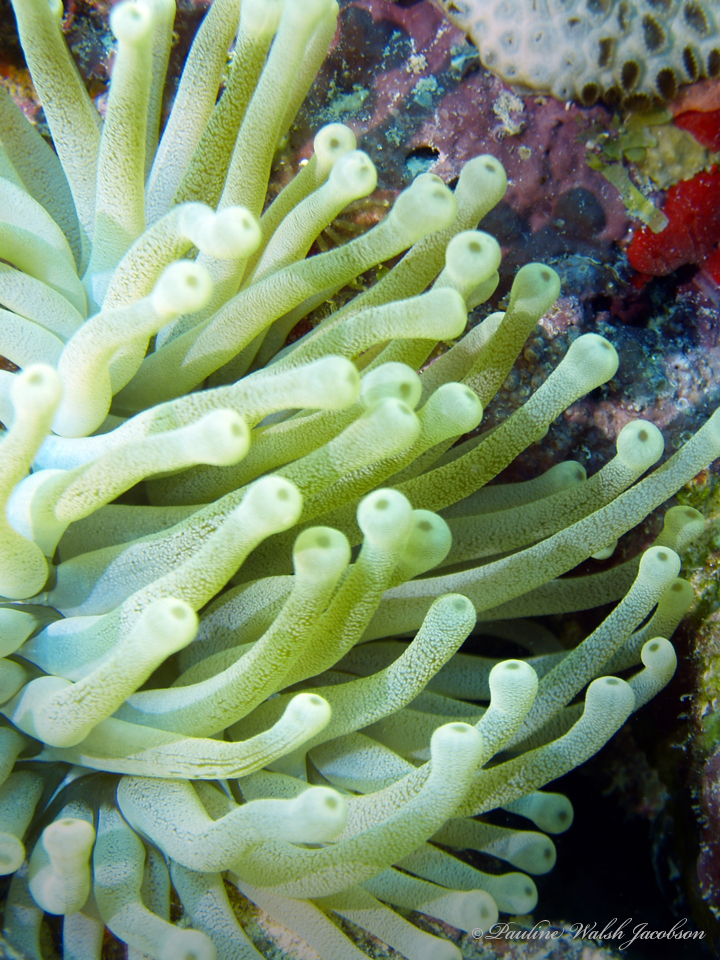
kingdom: Animalia
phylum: Cnidaria
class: Anthozoa
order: Actiniaria
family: Actiniidae
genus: Condylactis
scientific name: Condylactis gigantea
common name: Giant caribbean anemone
